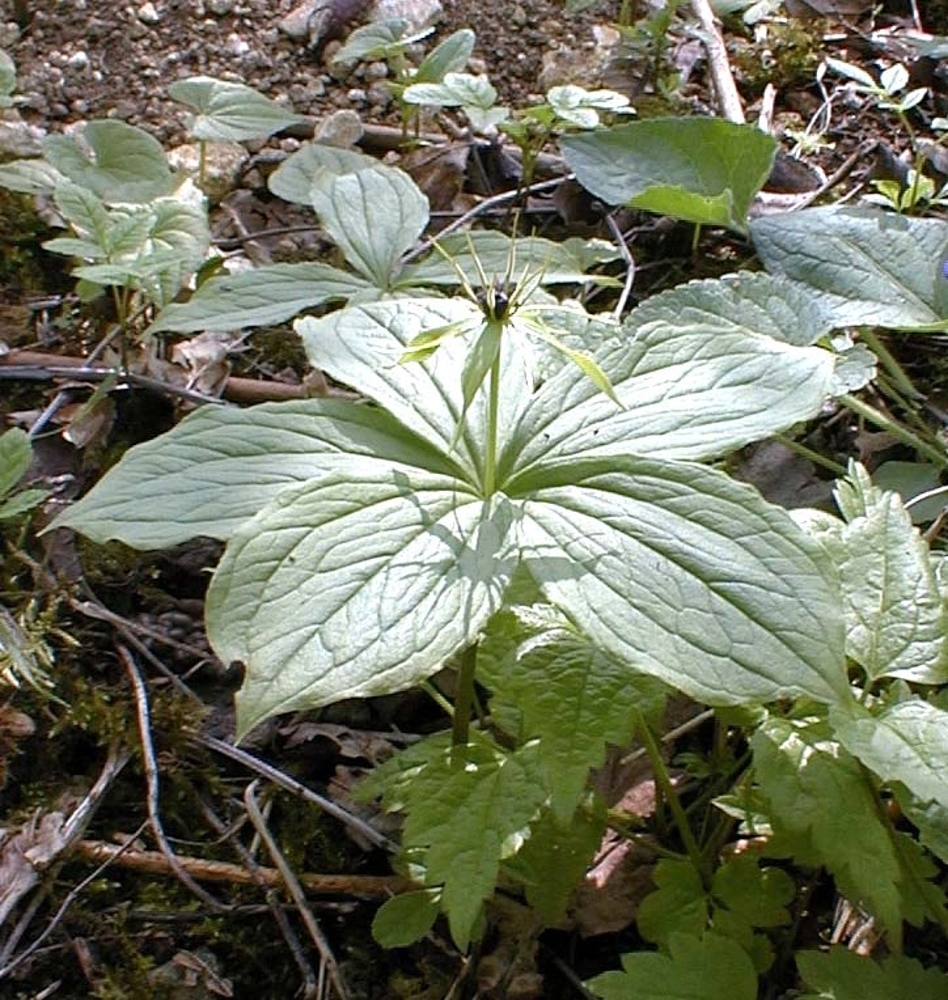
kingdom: Plantae
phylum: Tracheophyta
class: Liliopsida
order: Liliales
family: Melanthiaceae
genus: Paris
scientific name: Paris quadrifolia
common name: Herb-paris
